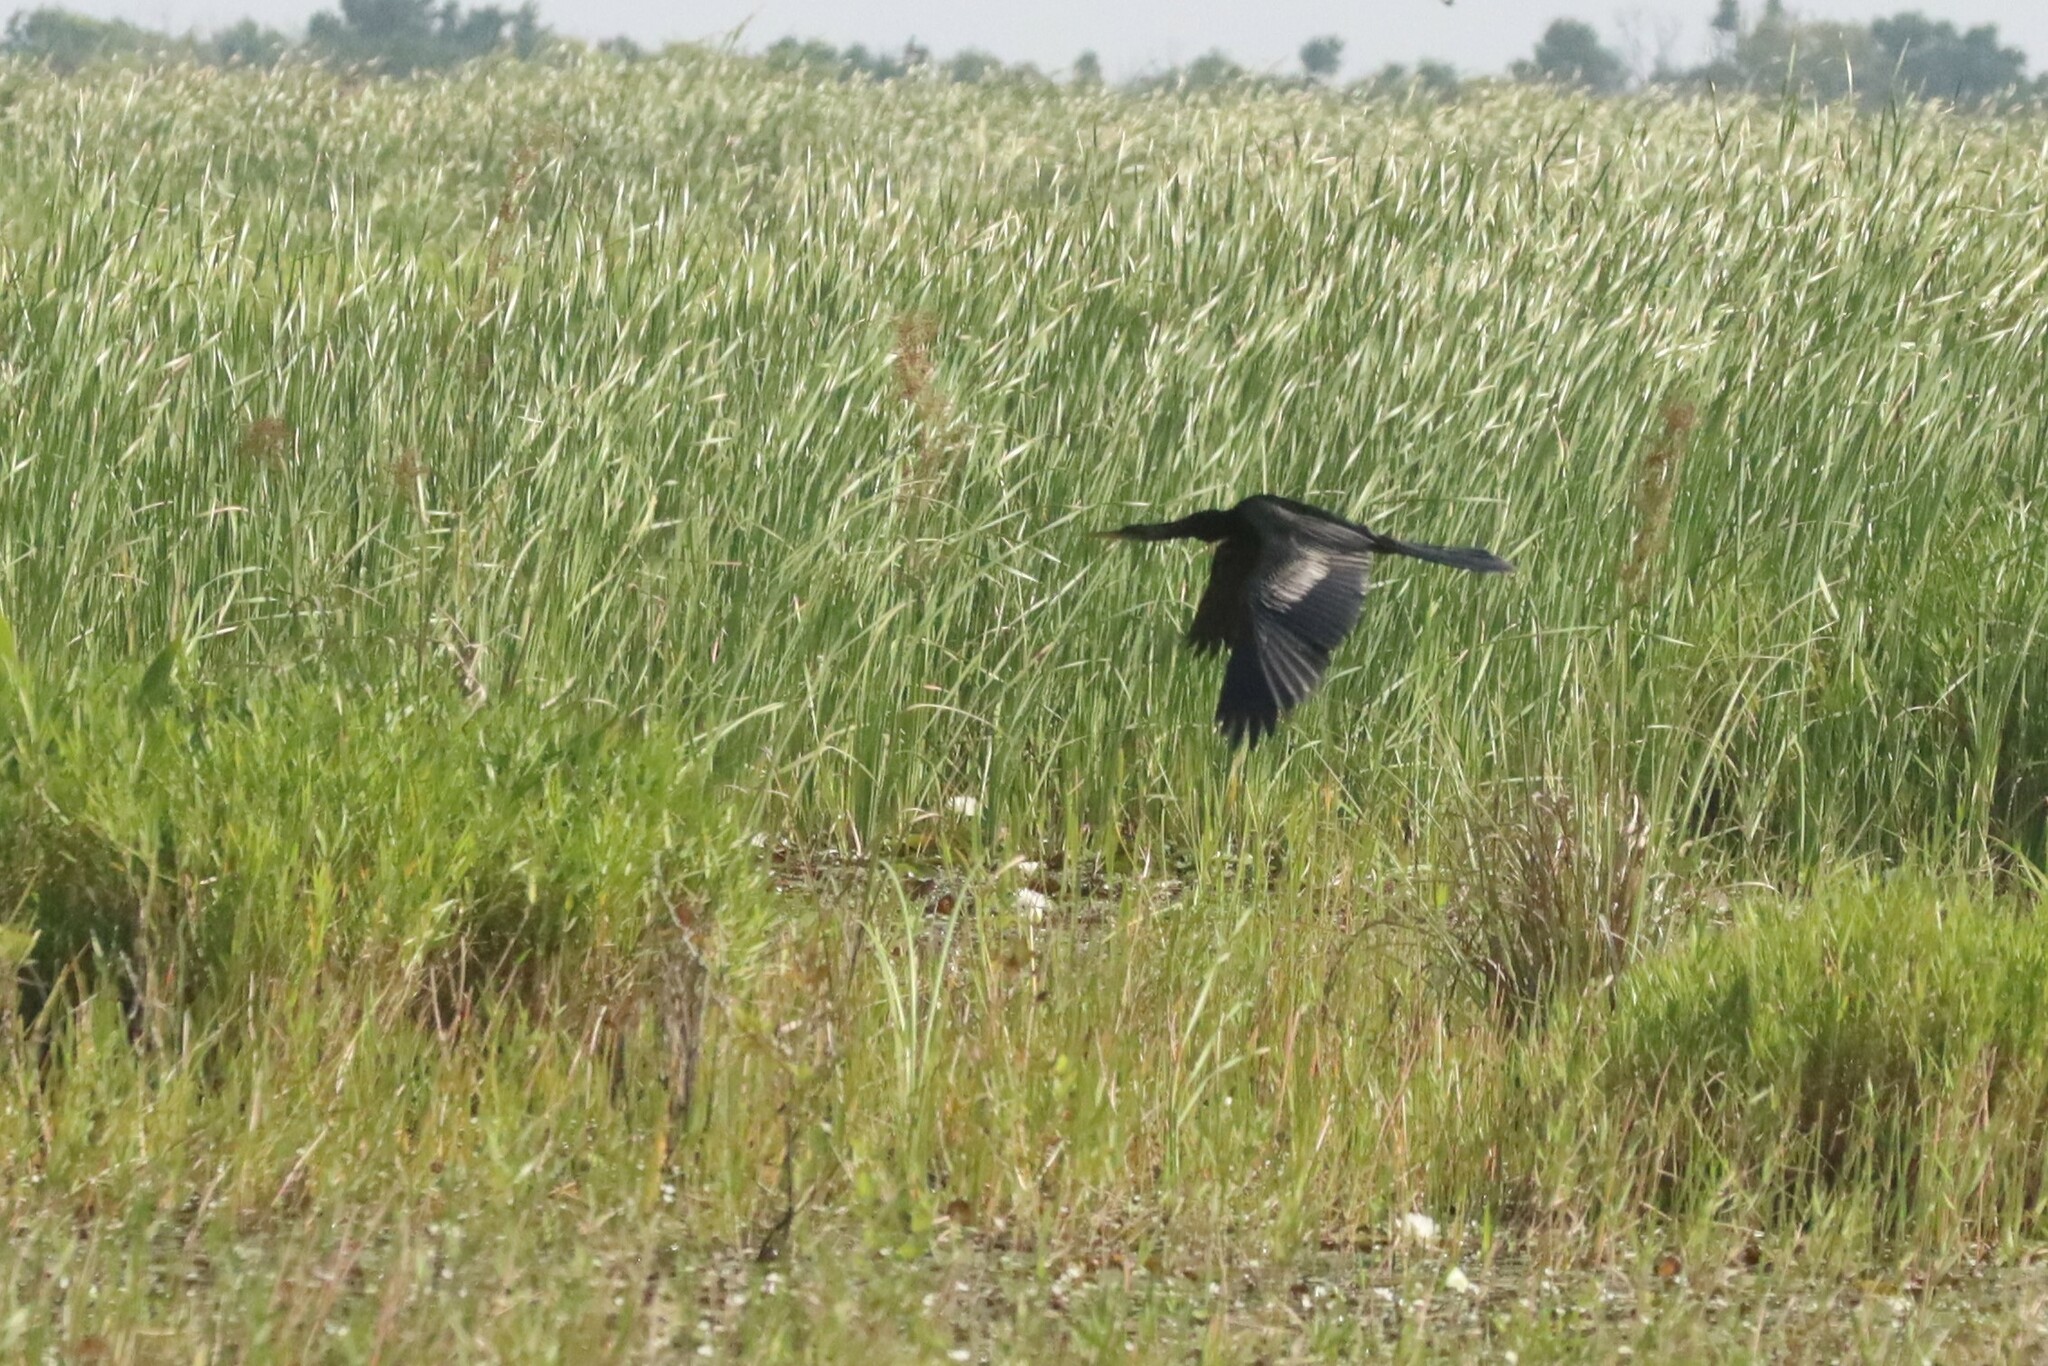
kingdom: Animalia
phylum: Chordata
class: Aves
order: Suliformes
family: Anhingidae
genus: Anhinga
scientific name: Anhinga anhinga
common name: Anhinga
